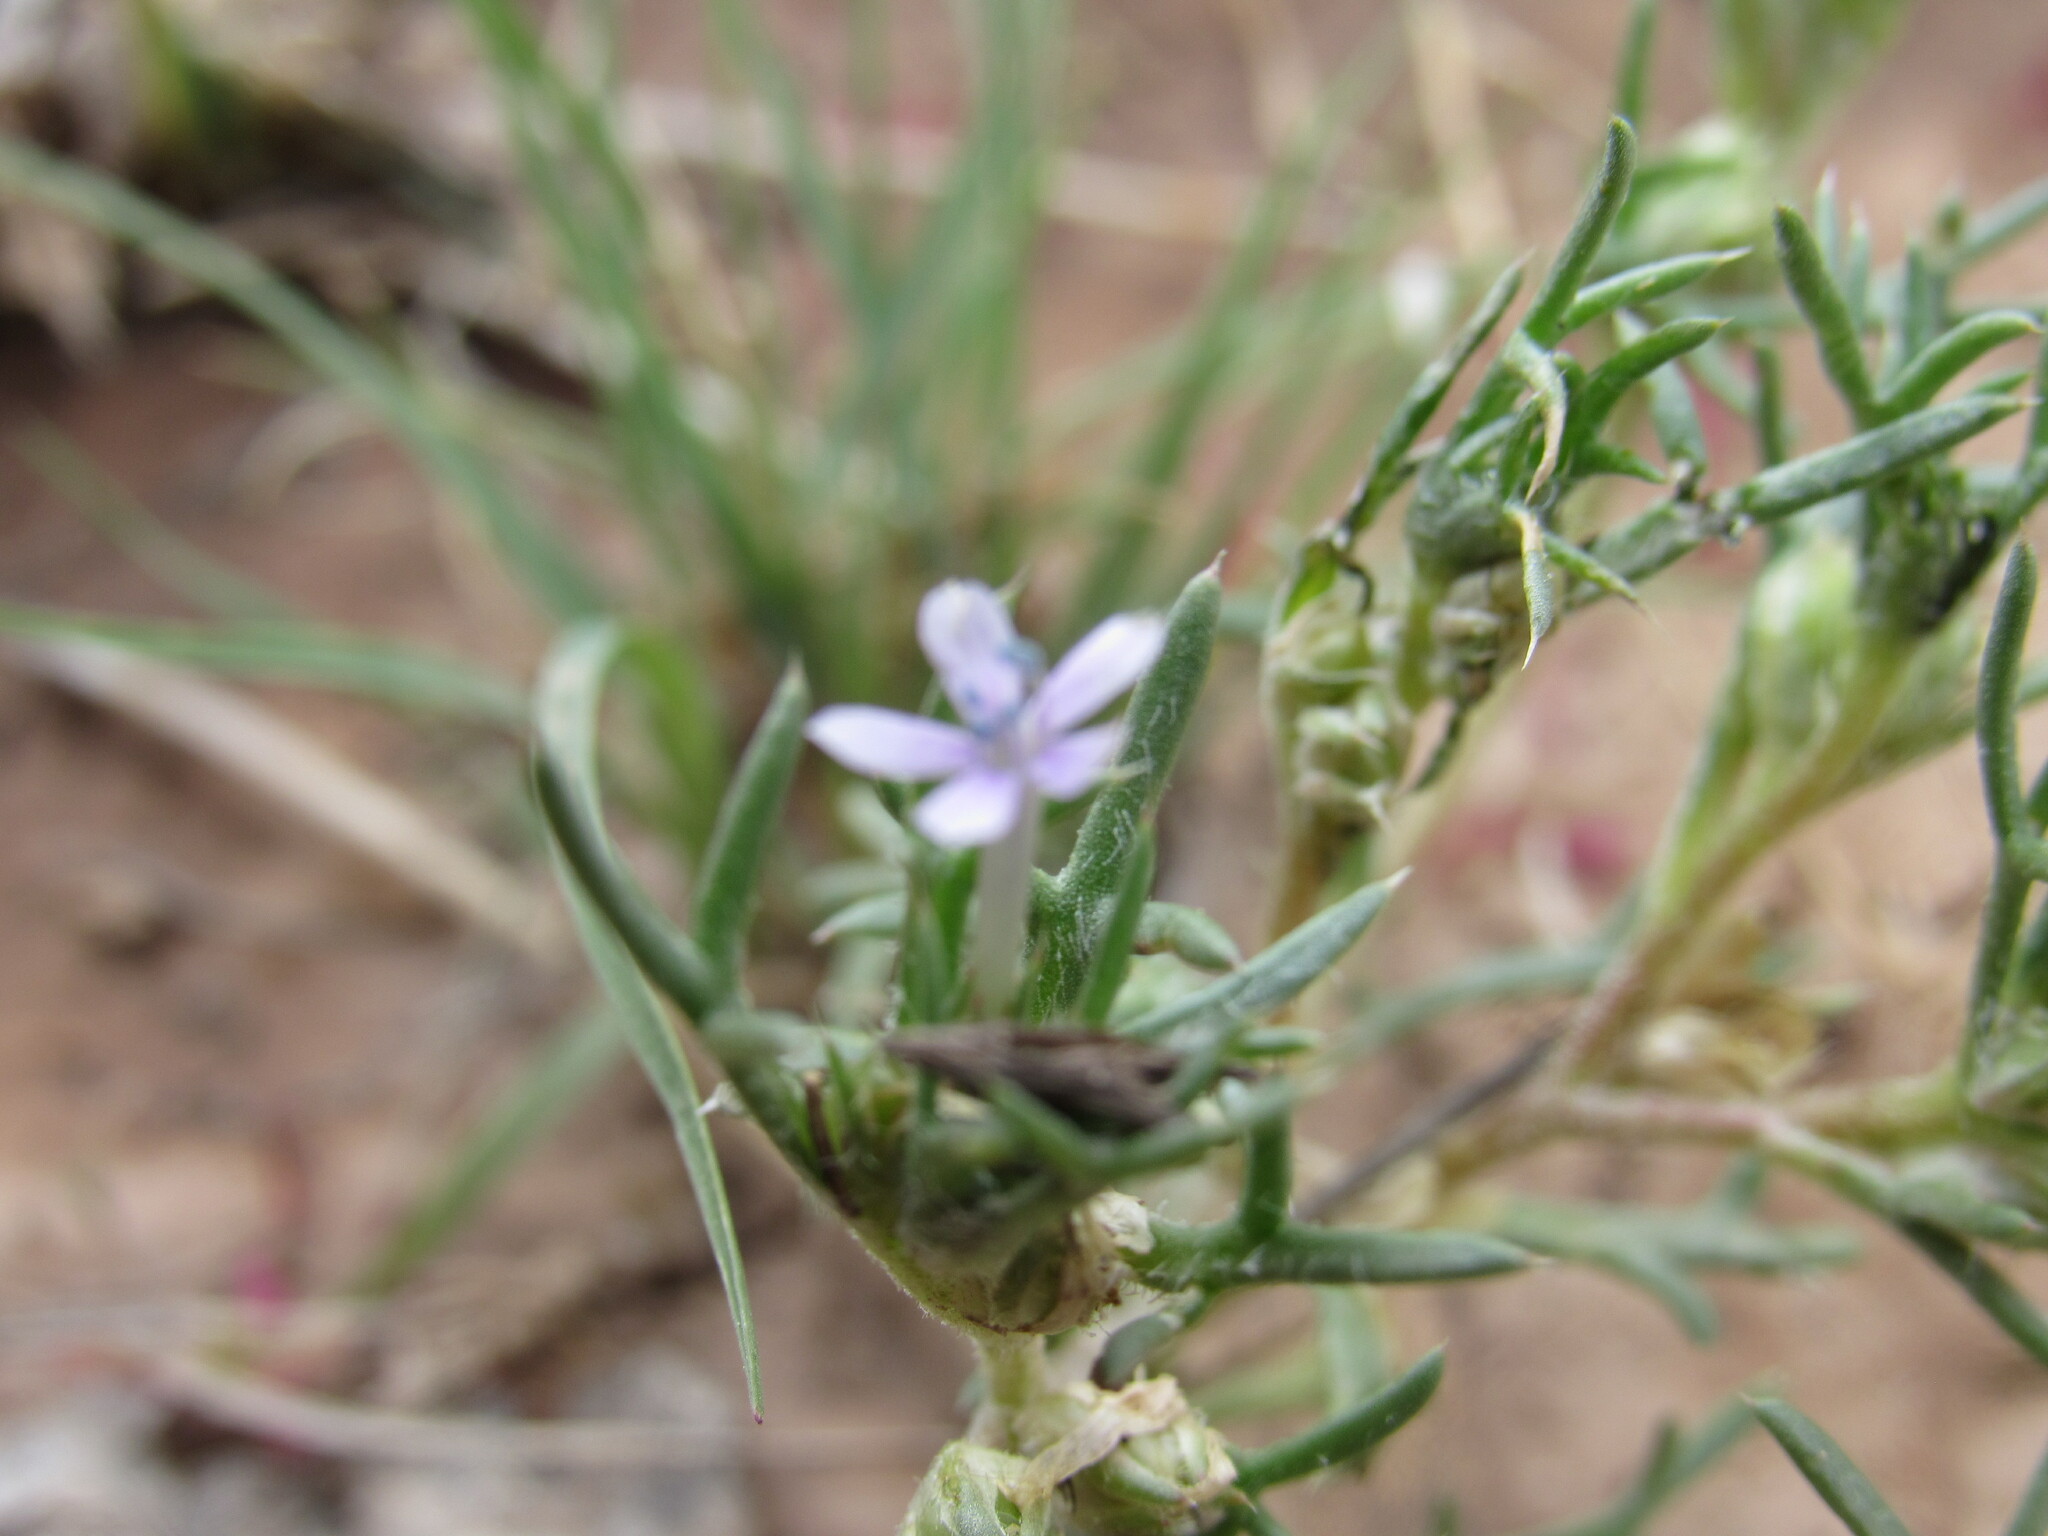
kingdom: Plantae
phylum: Tracheophyta
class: Magnoliopsida
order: Ericales
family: Polemoniaceae
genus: Ipomopsis
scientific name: Ipomopsis pumila
